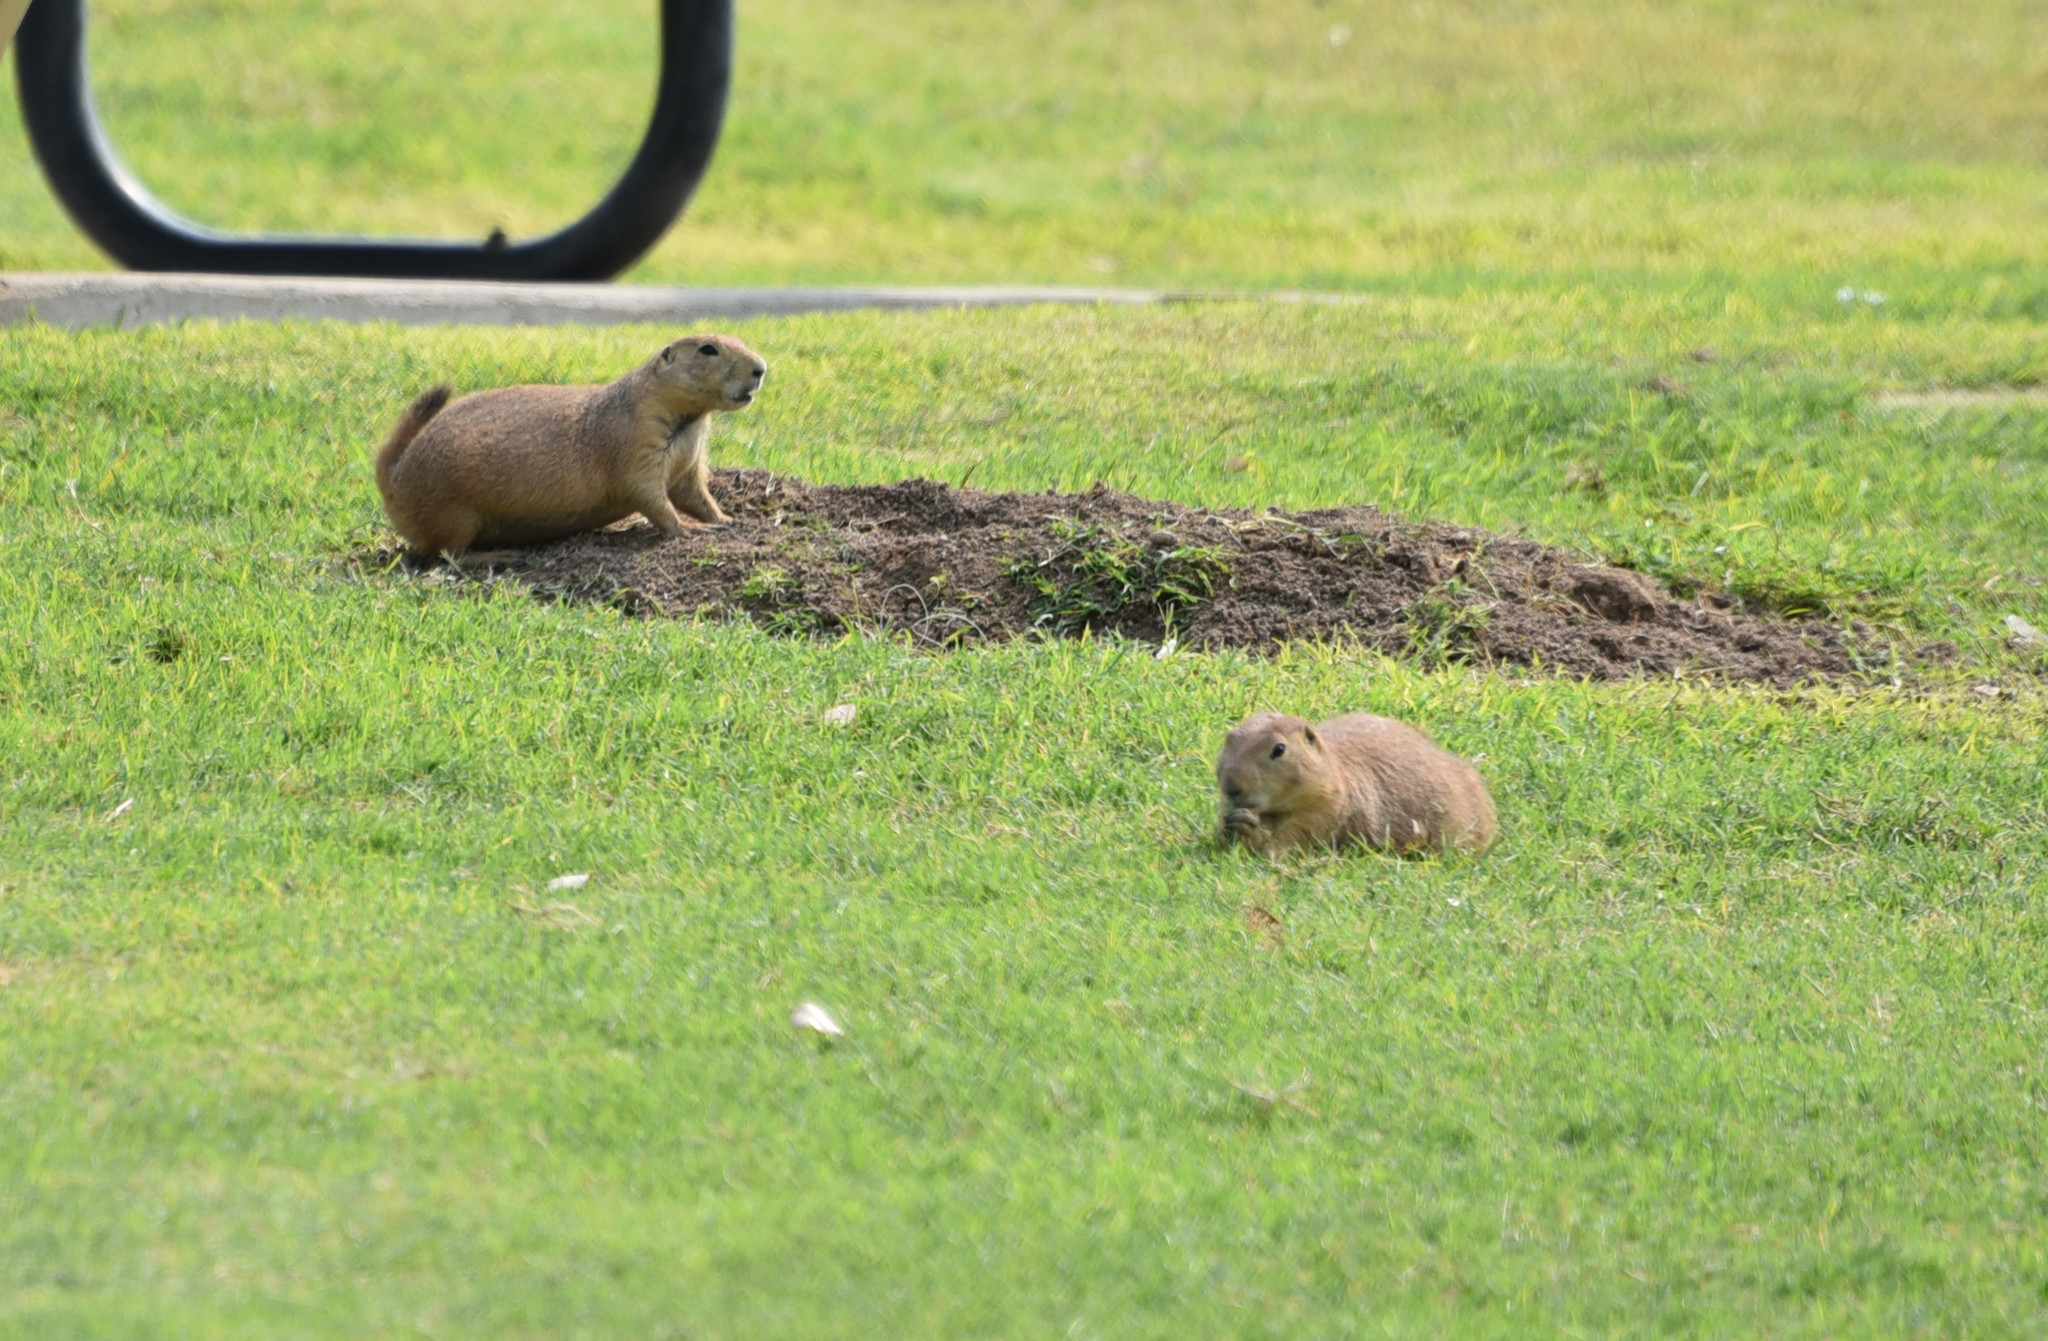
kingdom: Animalia
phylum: Chordata
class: Mammalia
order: Rodentia
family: Sciuridae
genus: Cynomys
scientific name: Cynomys ludovicianus
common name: Black-tailed prairie dog
